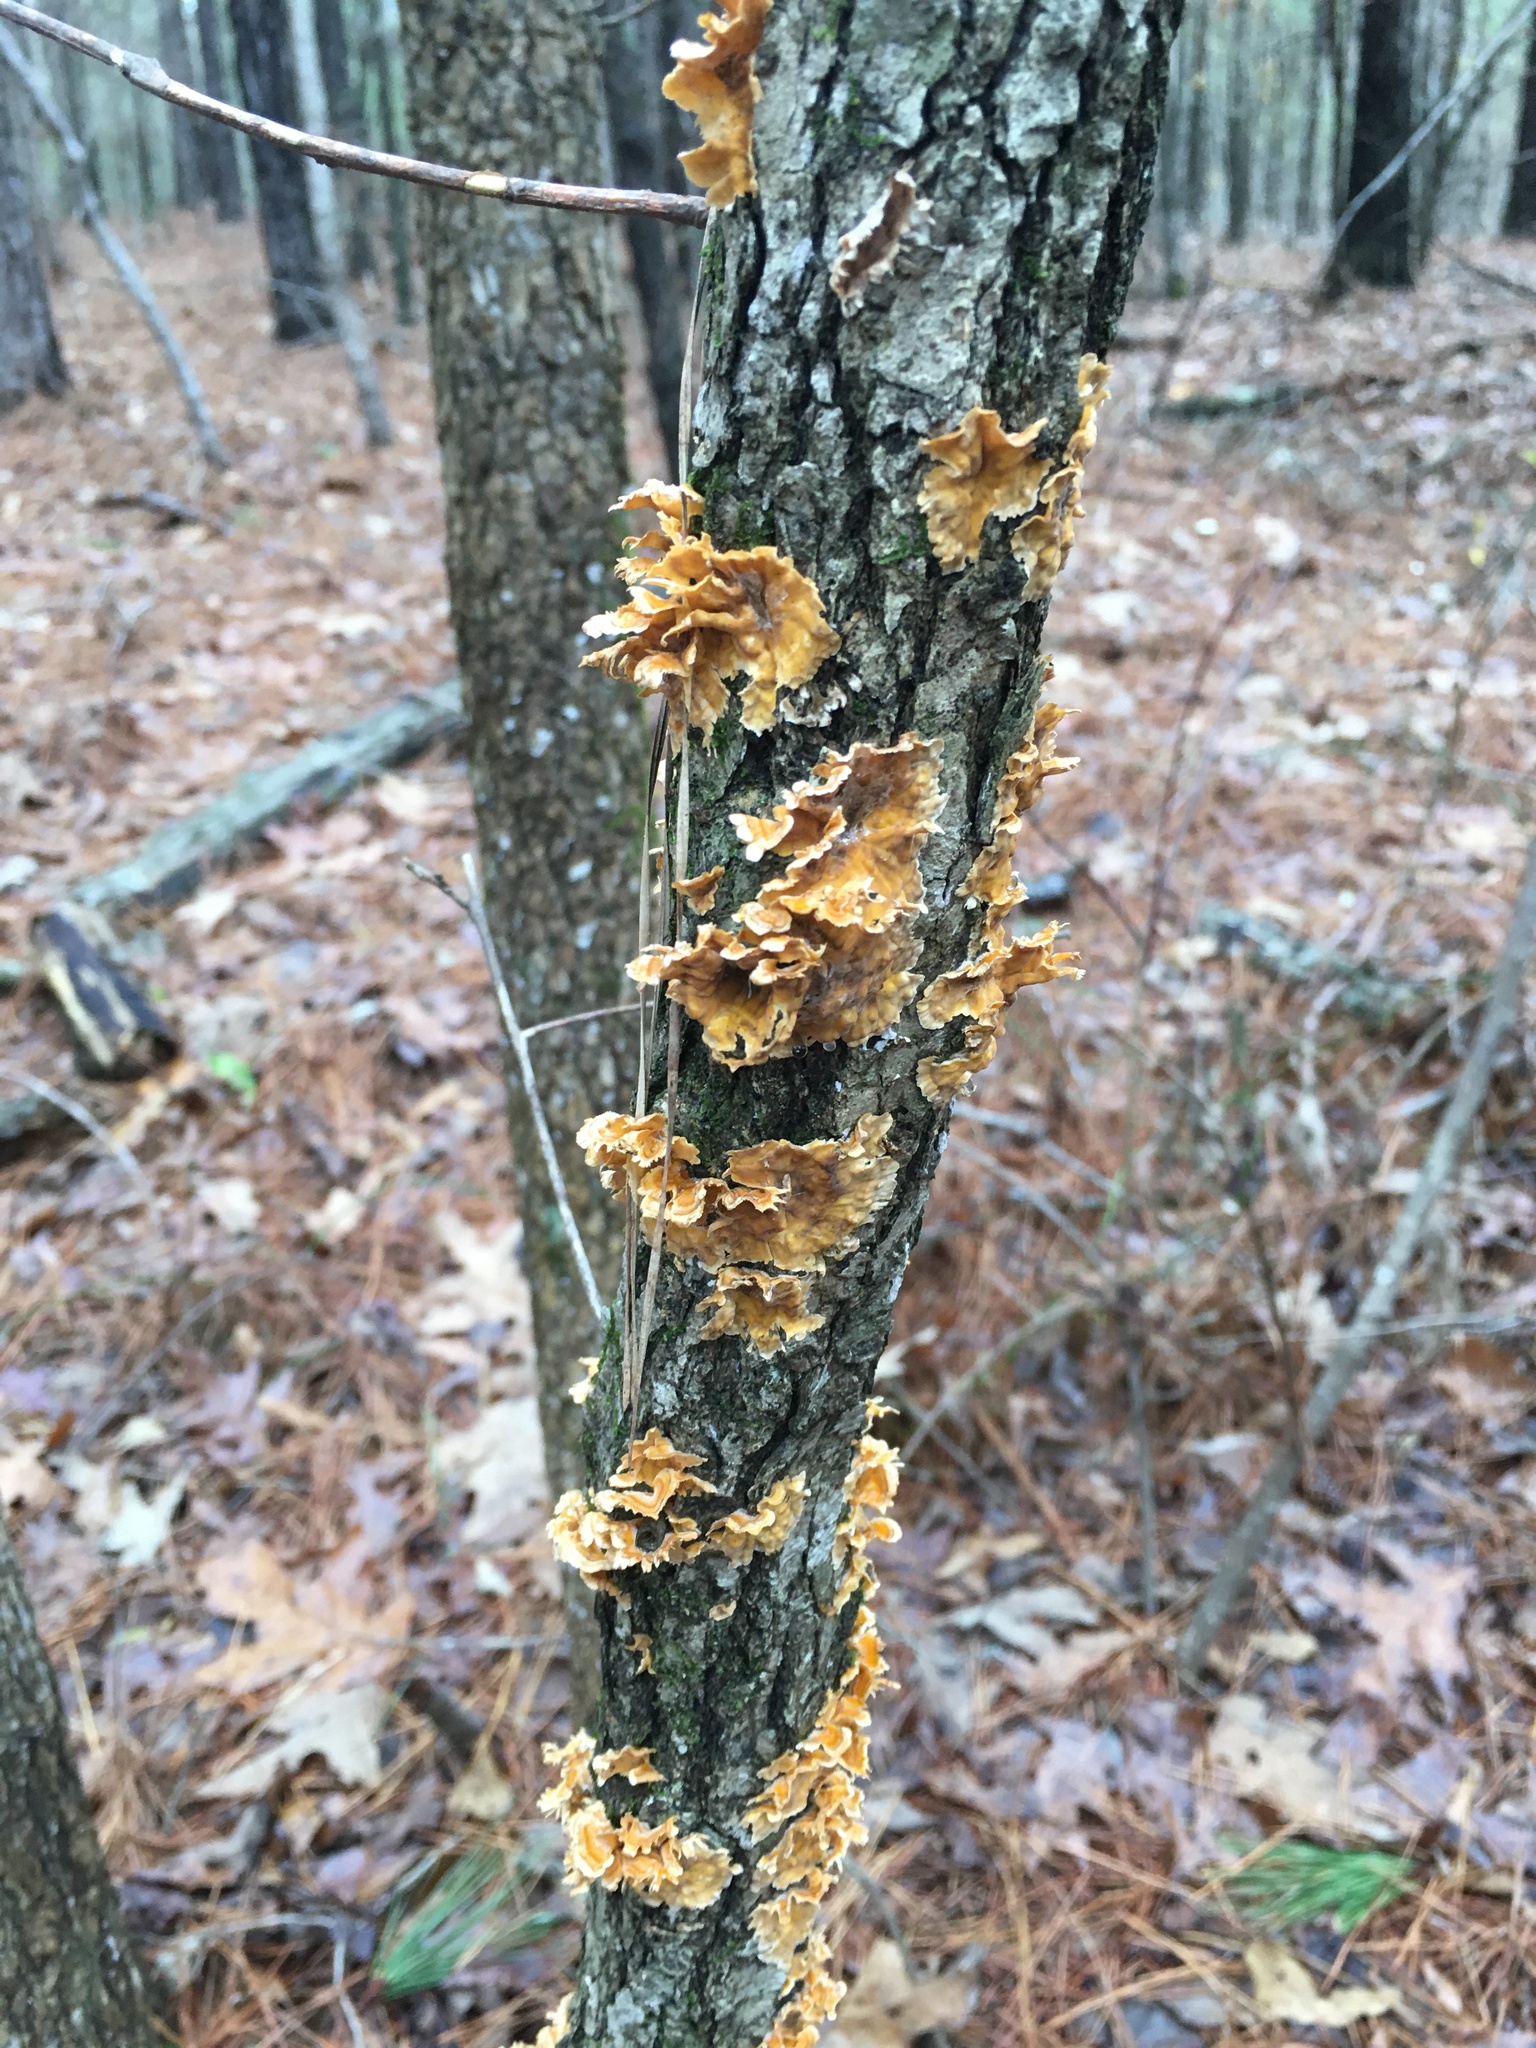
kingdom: Fungi
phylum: Basidiomycota
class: Agaricomycetes
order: Russulales
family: Stereaceae
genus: Stereum
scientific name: Stereum complicatum
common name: Crowded parchment
